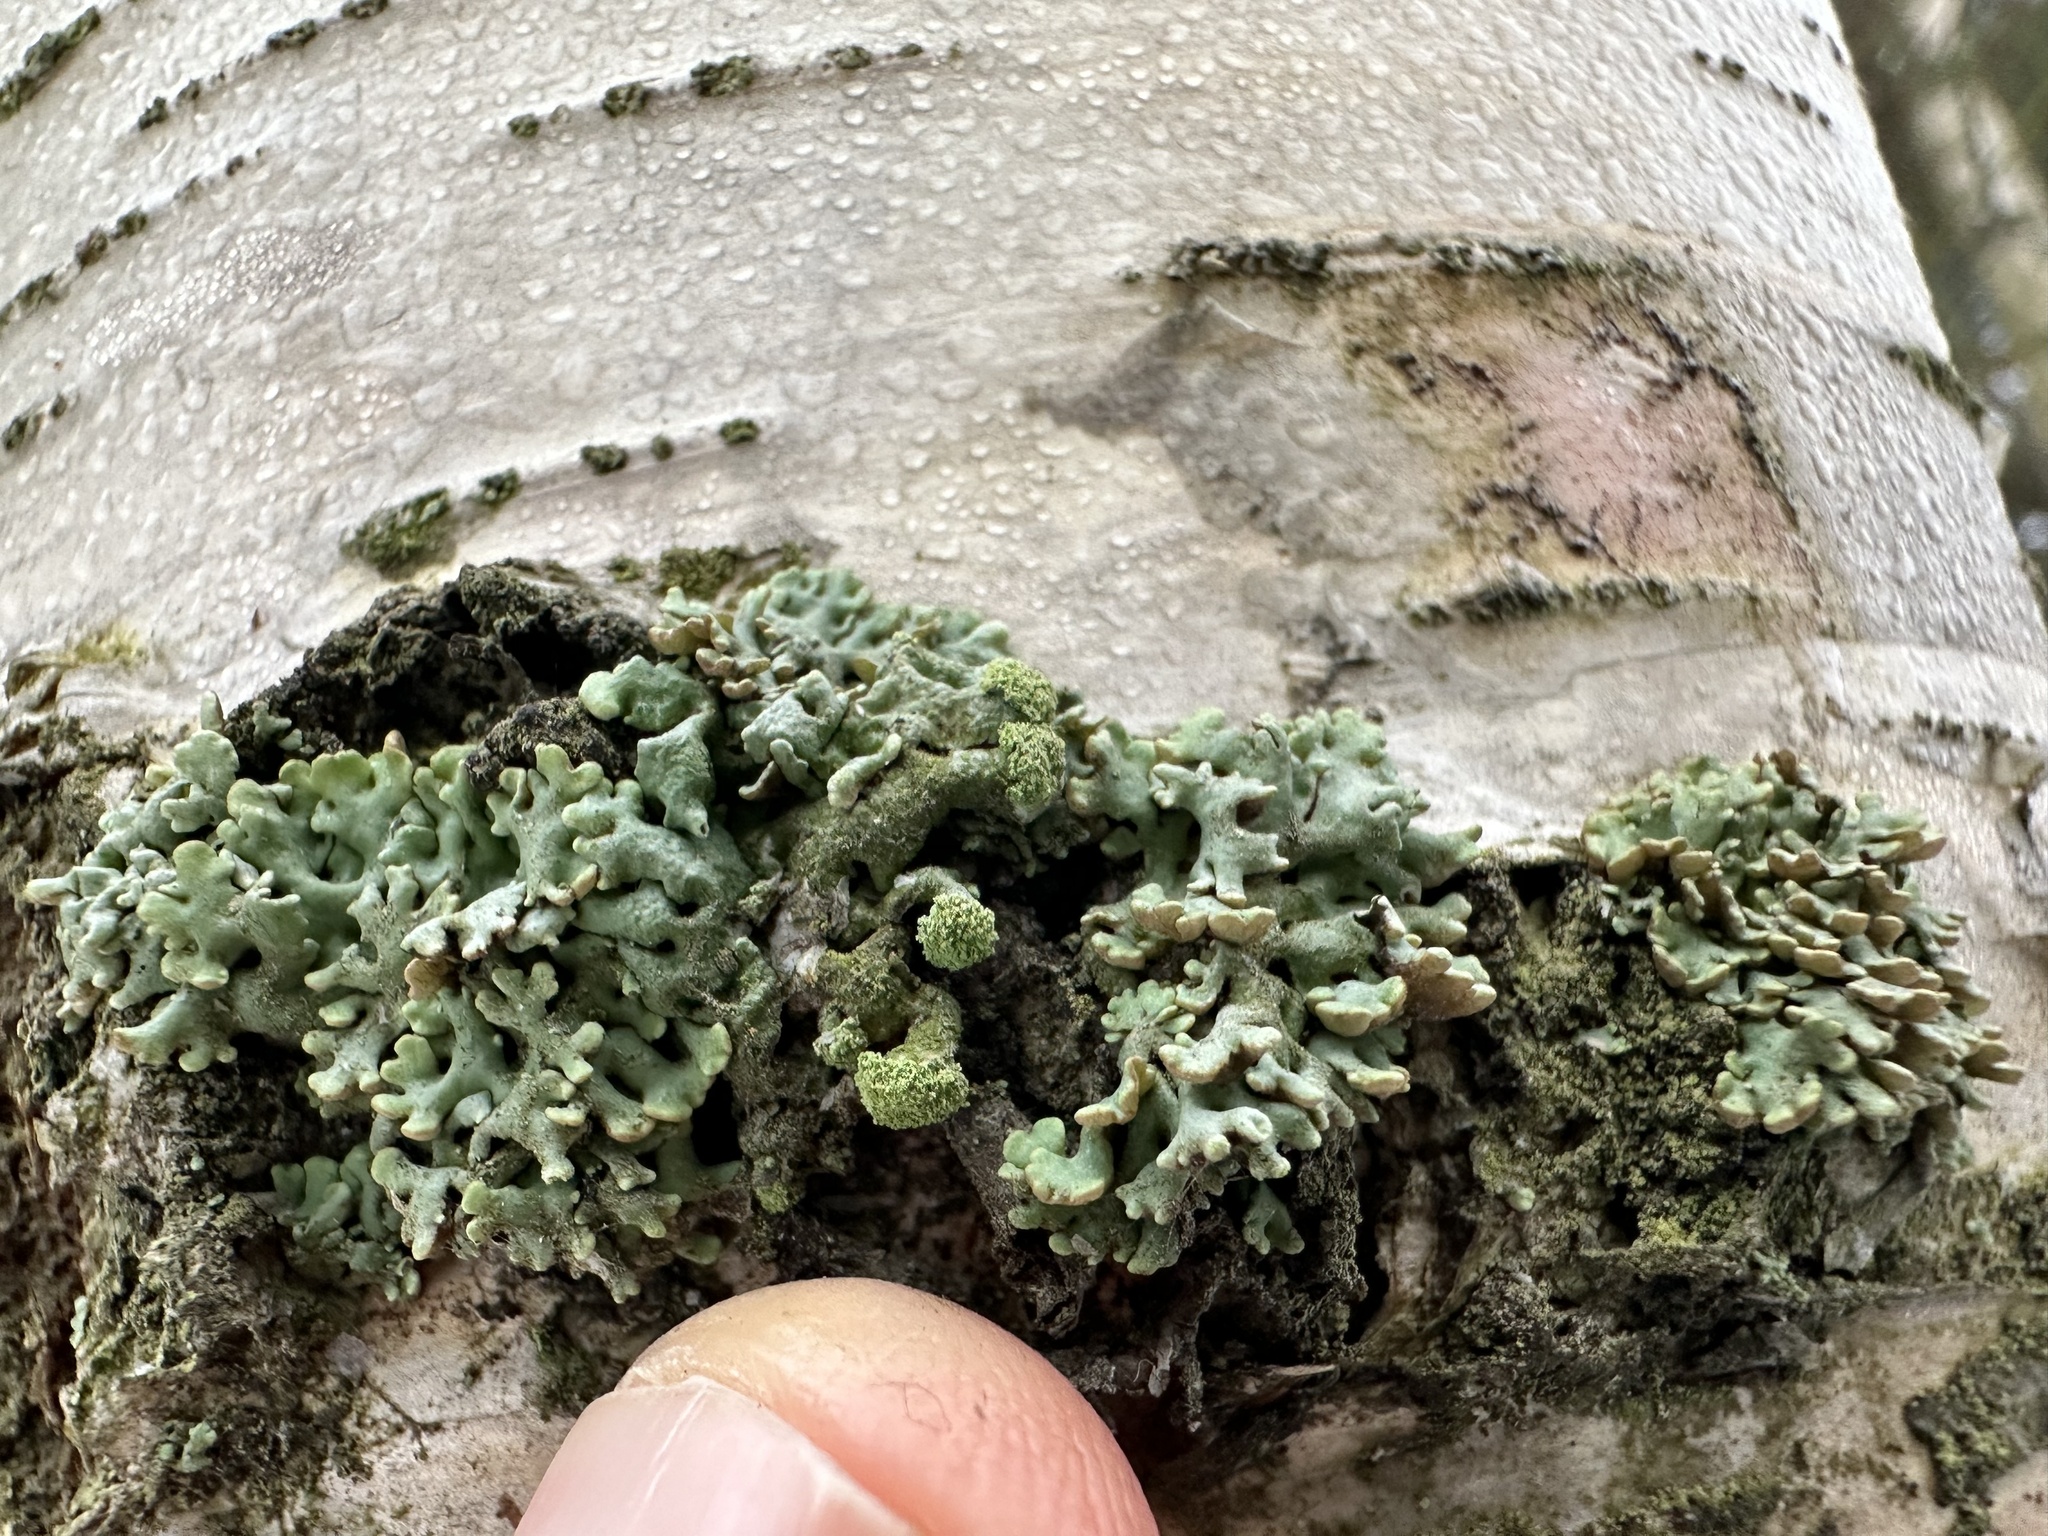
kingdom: Fungi
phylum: Ascomycota
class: Lecanoromycetes
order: Lecanorales
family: Parmeliaceae
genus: Hypogymnia
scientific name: Hypogymnia tubulosa
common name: Powder-headed tube lichen
